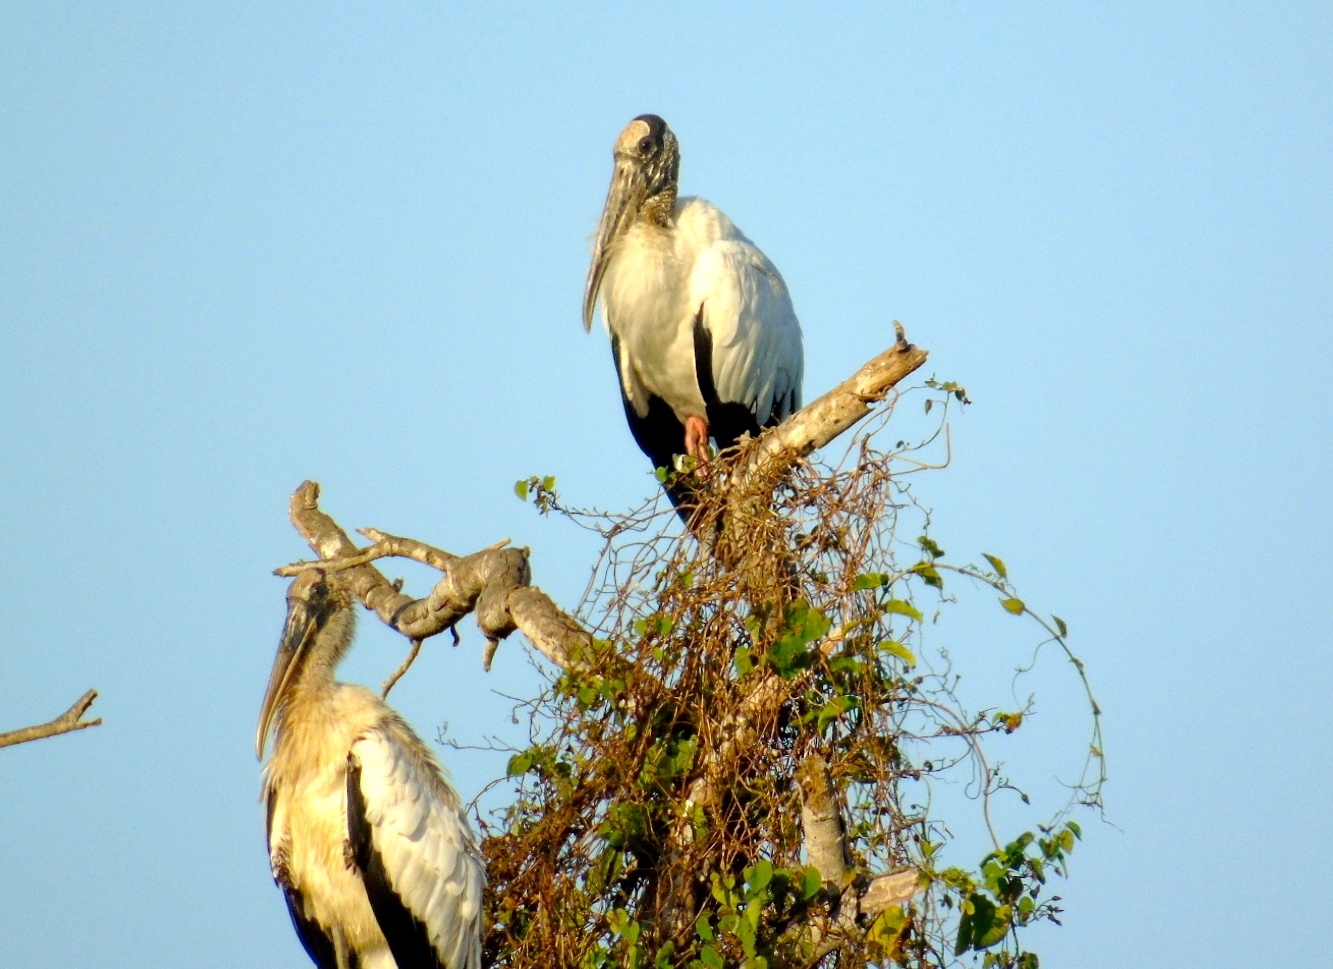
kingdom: Animalia
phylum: Chordata
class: Aves
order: Ciconiiformes
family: Ciconiidae
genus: Mycteria
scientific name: Mycteria americana
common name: Wood stork
